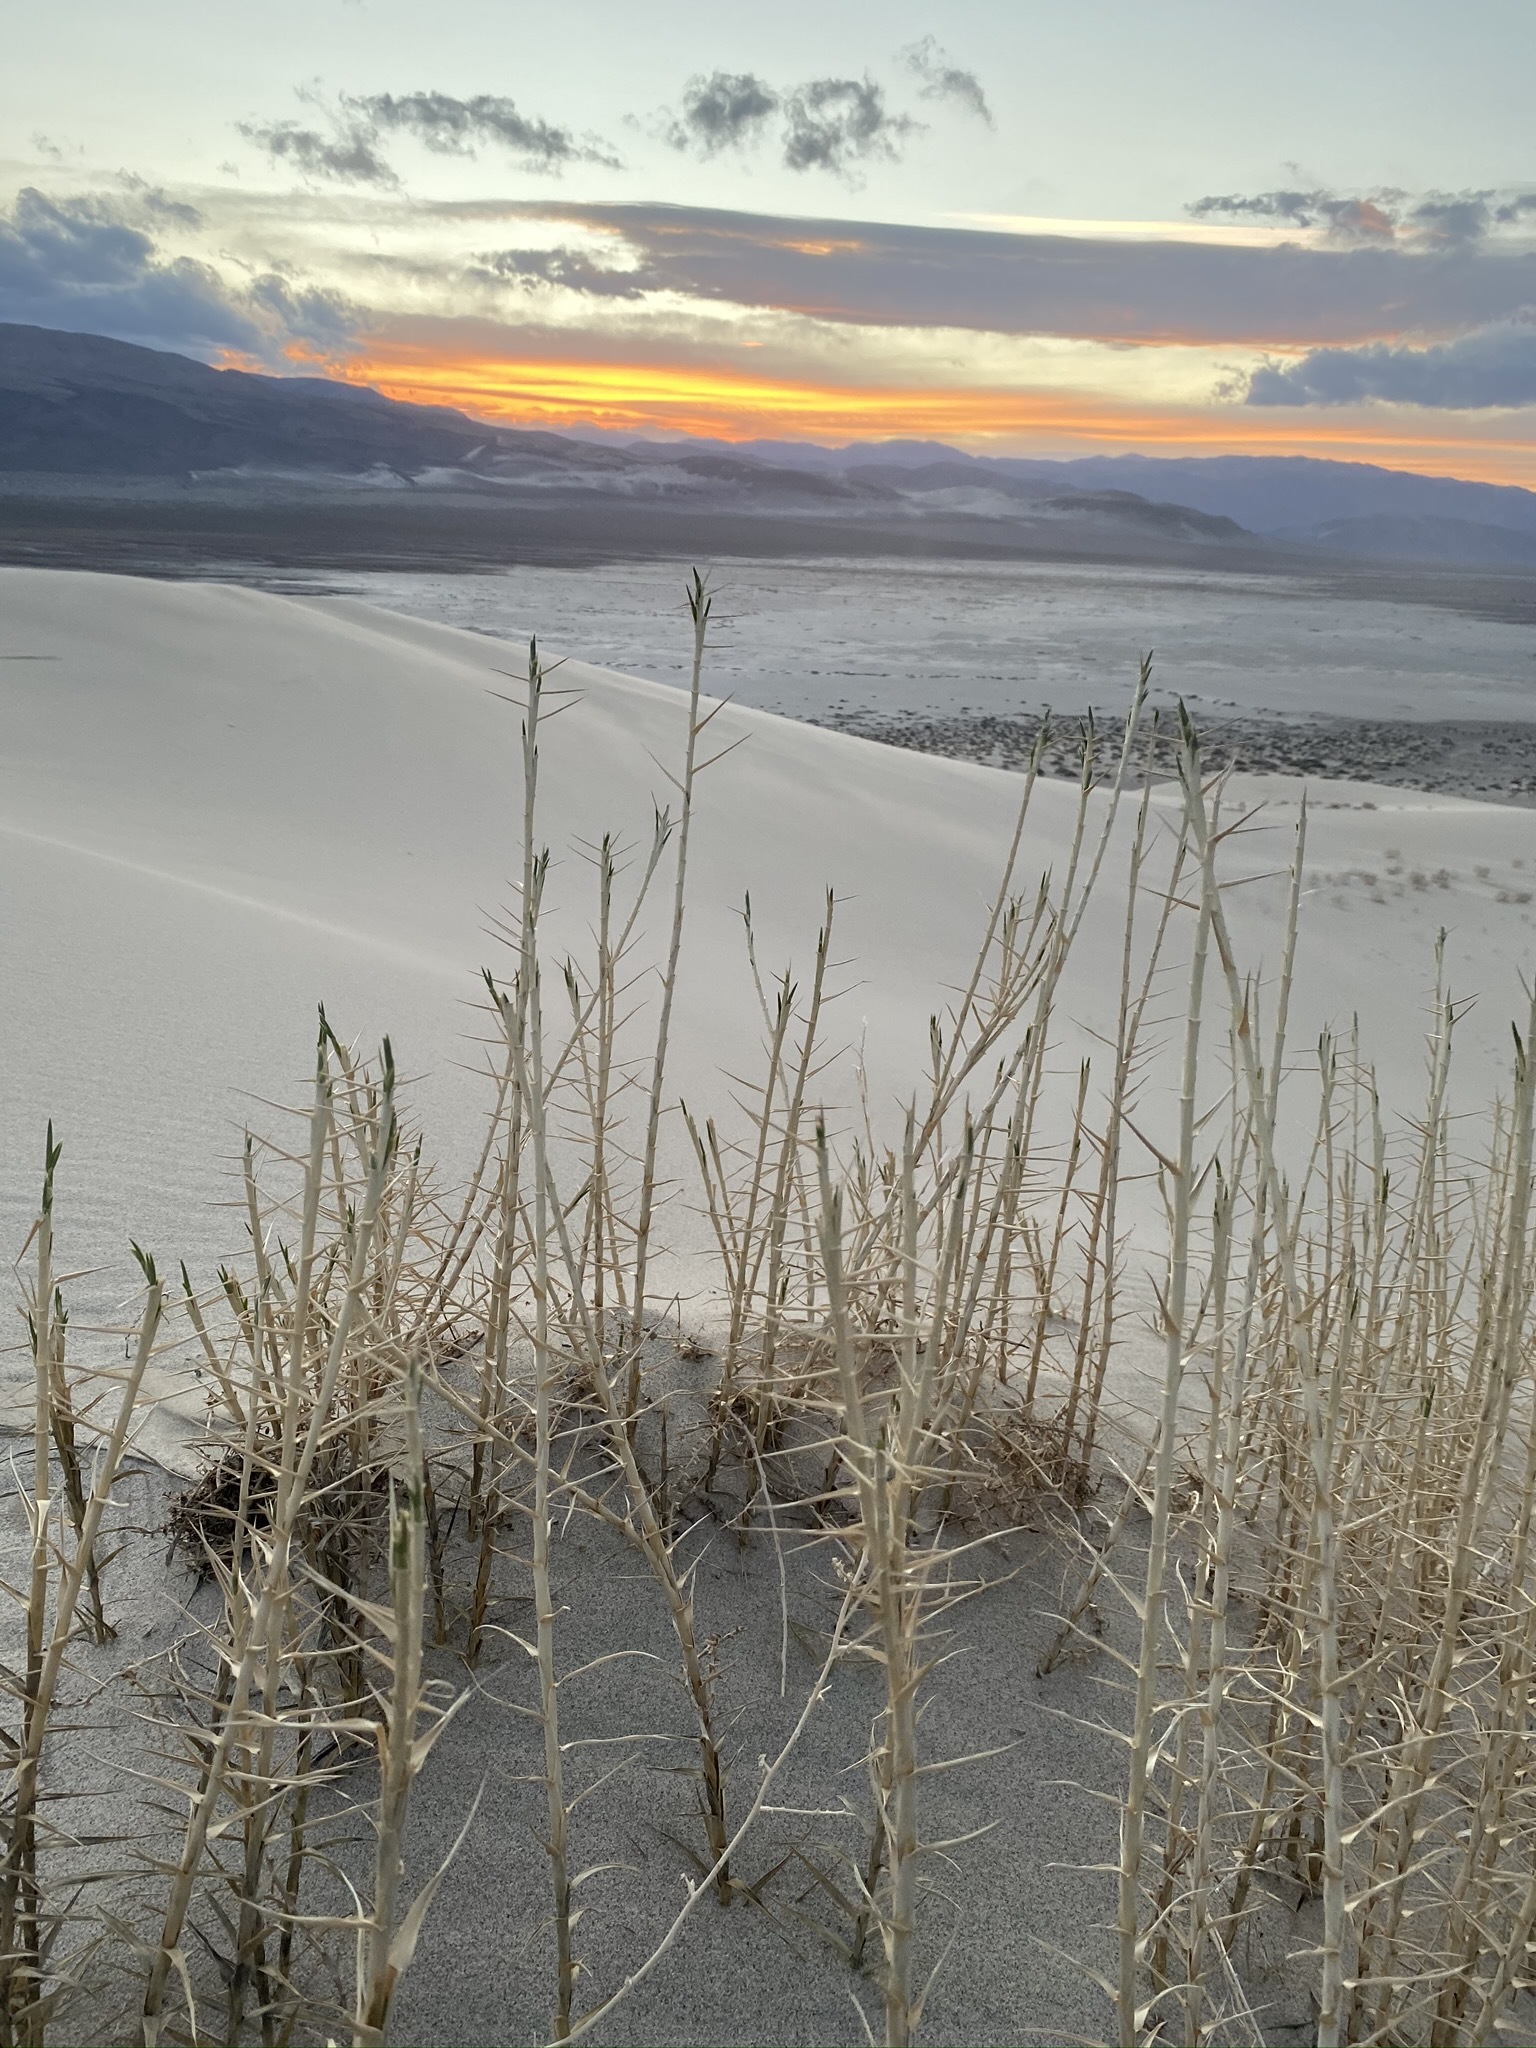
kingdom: Plantae
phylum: Tracheophyta
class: Liliopsida
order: Poales
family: Poaceae
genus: Swallenia
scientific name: Swallenia alexandrae
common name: Eureka dune grass
